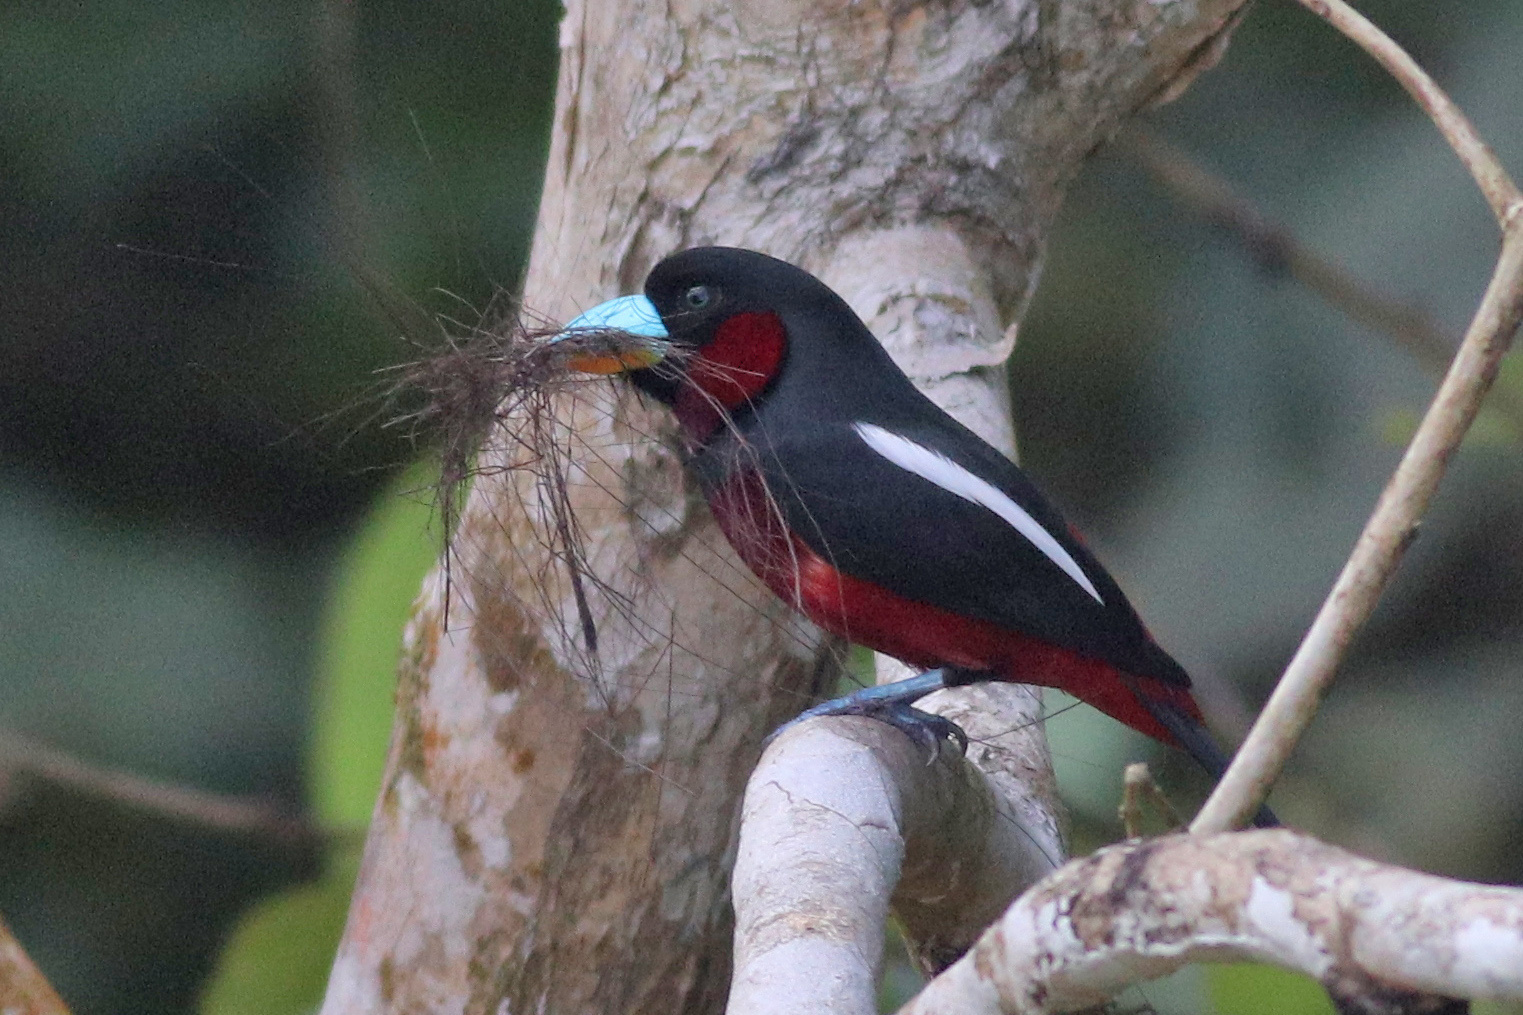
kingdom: Animalia
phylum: Chordata
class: Aves
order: Passeriformes
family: Eurylaimidae
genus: Cymbirhynchus
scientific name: Cymbirhynchus macrorhynchos
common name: Black-and-red broadbill
